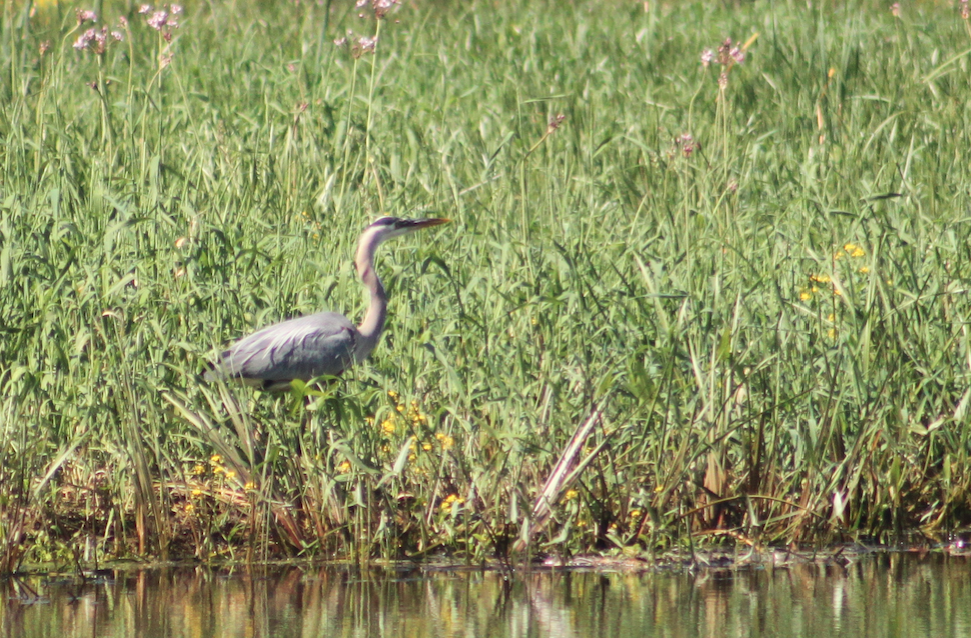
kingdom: Animalia
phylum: Chordata
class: Aves
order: Pelecaniformes
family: Ardeidae
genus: Ardea
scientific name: Ardea herodias
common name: Great blue heron
